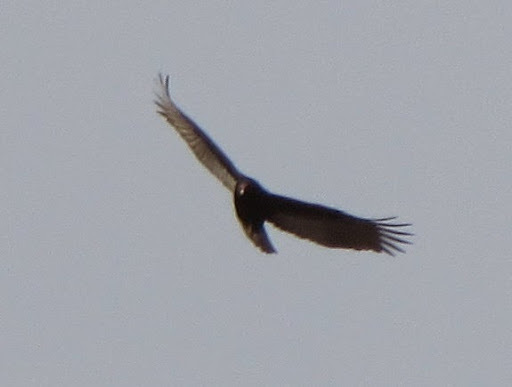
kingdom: Animalia
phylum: Chordata
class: Aves
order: Accipitriformes
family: Cathartidae
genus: Cathartes
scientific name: Cathartes aura
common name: Turkey vulture
